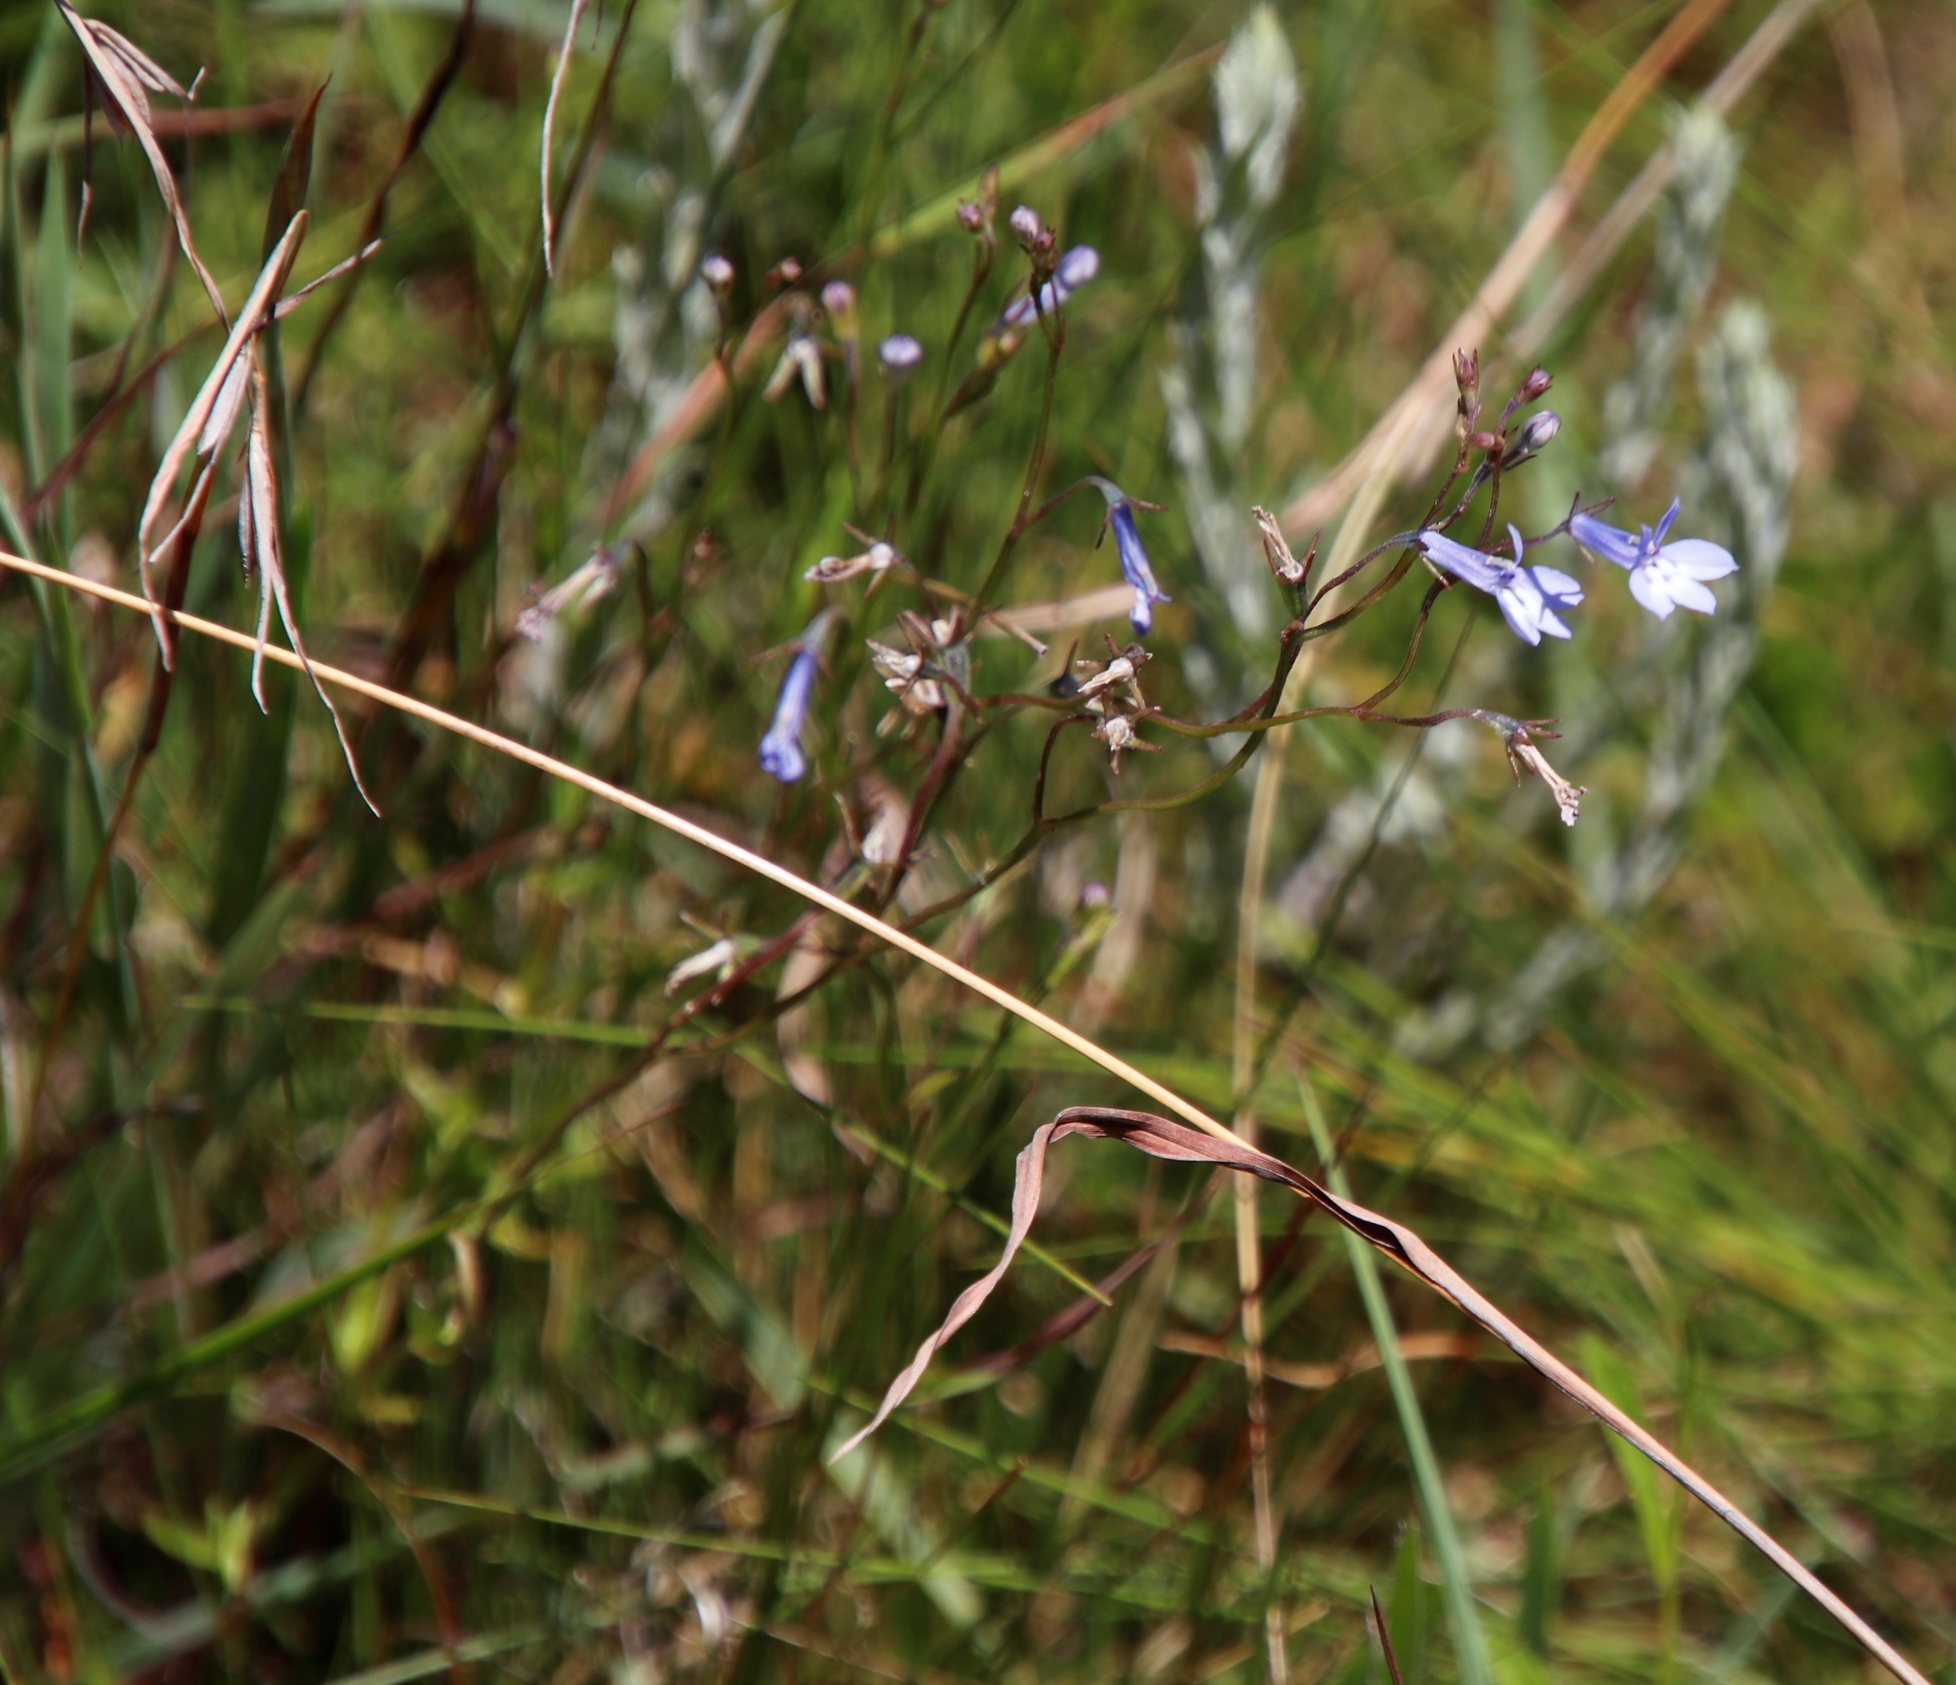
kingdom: Plantae
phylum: Tracheophyta
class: Magnoliopsida
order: Asterales
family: Campanulaceae
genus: Lobelia
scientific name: Lobelia flaccida
